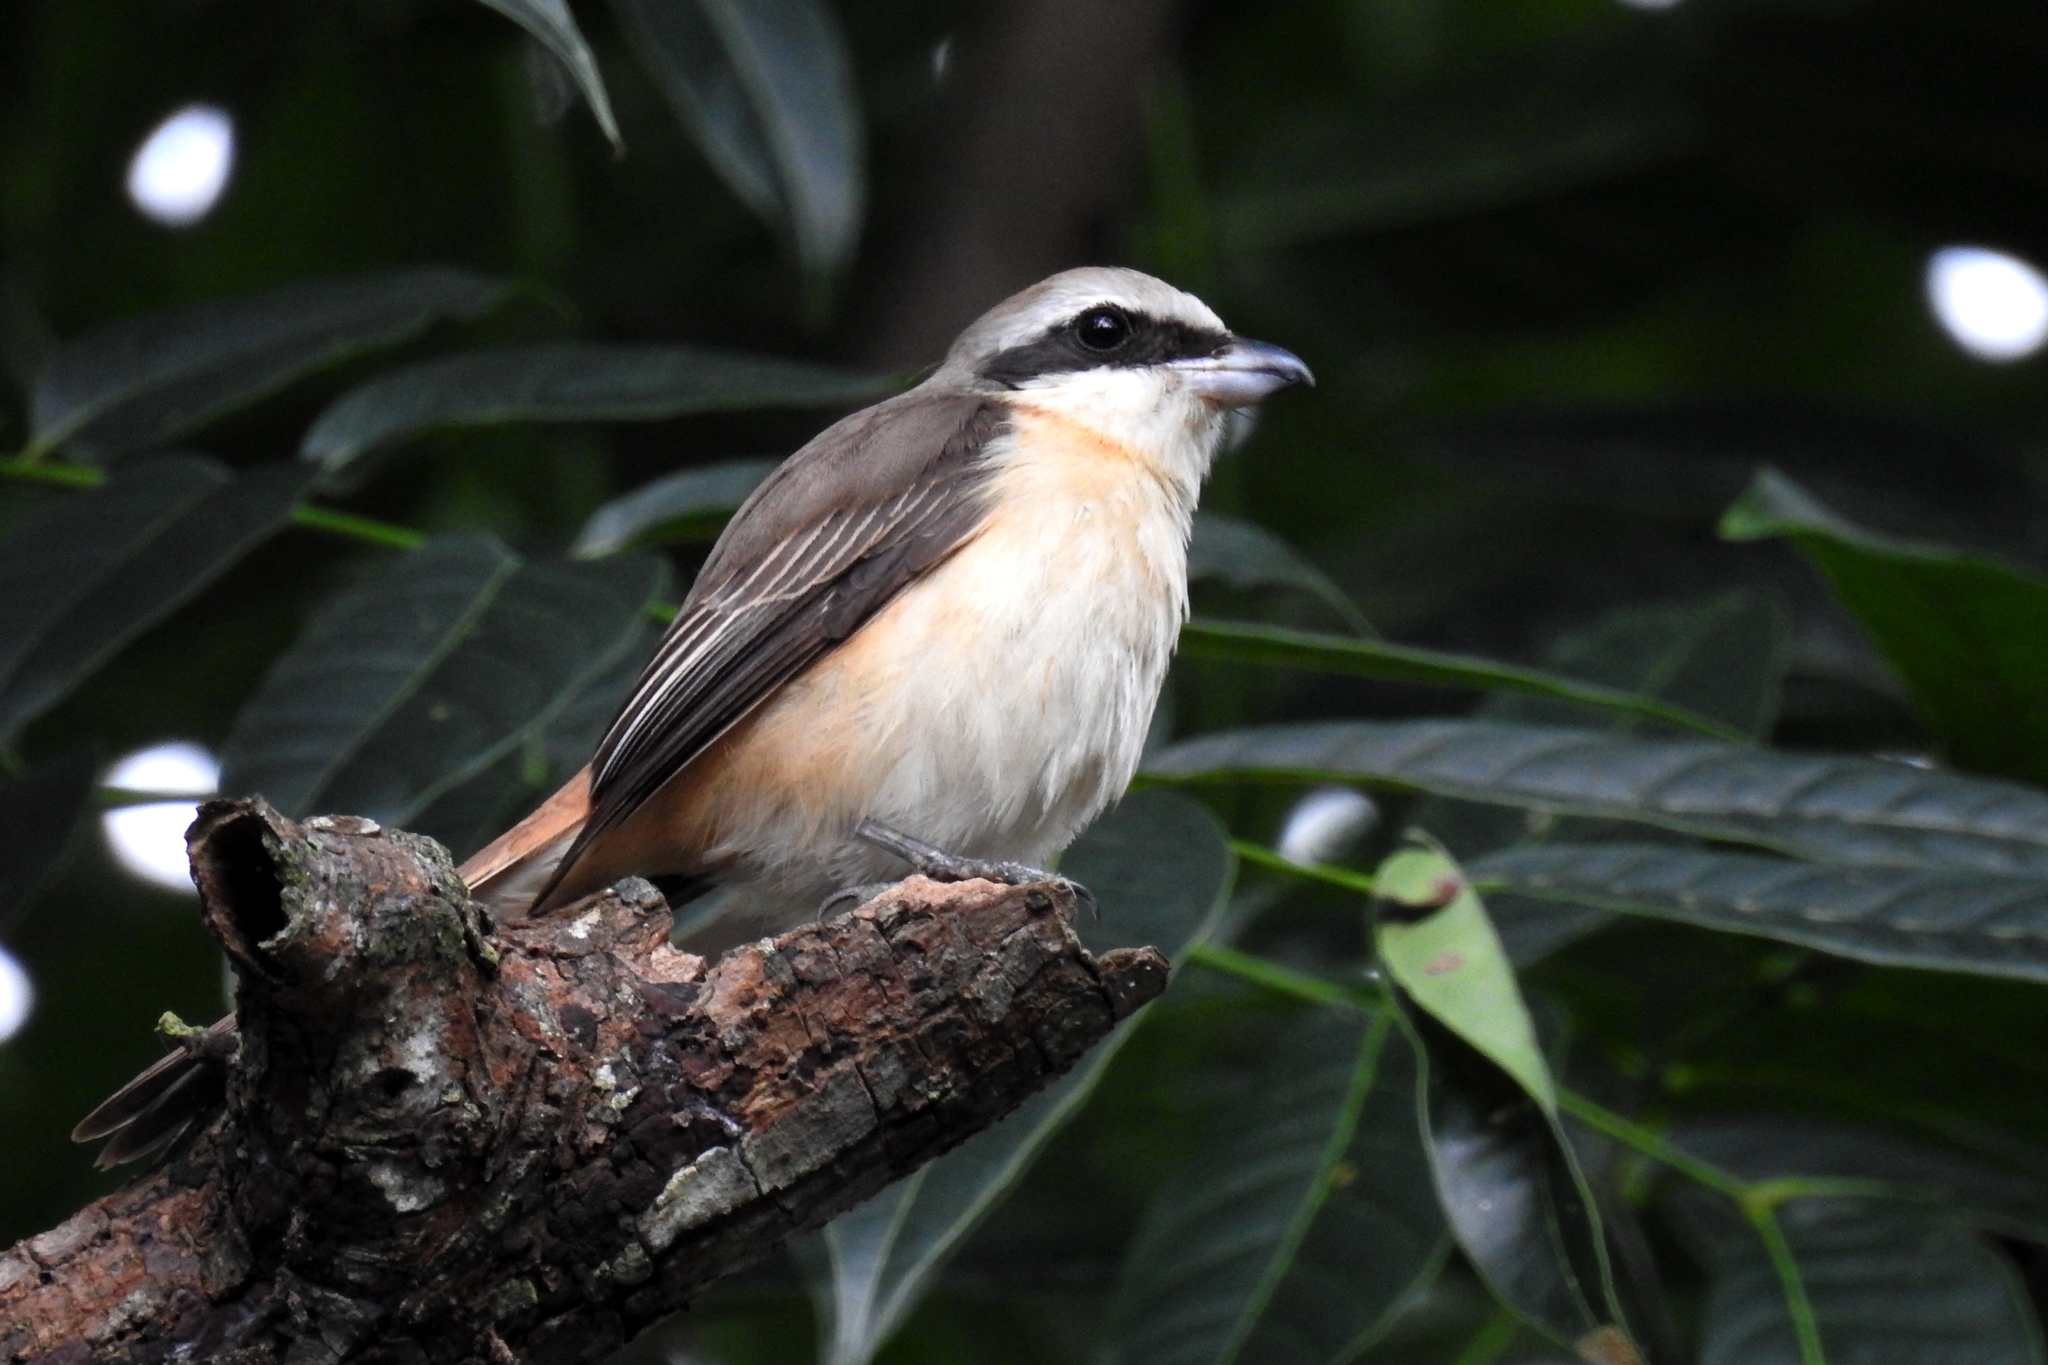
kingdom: Animalia
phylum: Chordata
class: Aves
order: Passeriformes
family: Laniidae
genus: Lanius
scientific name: Lanius cristatus
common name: Brown shrike
